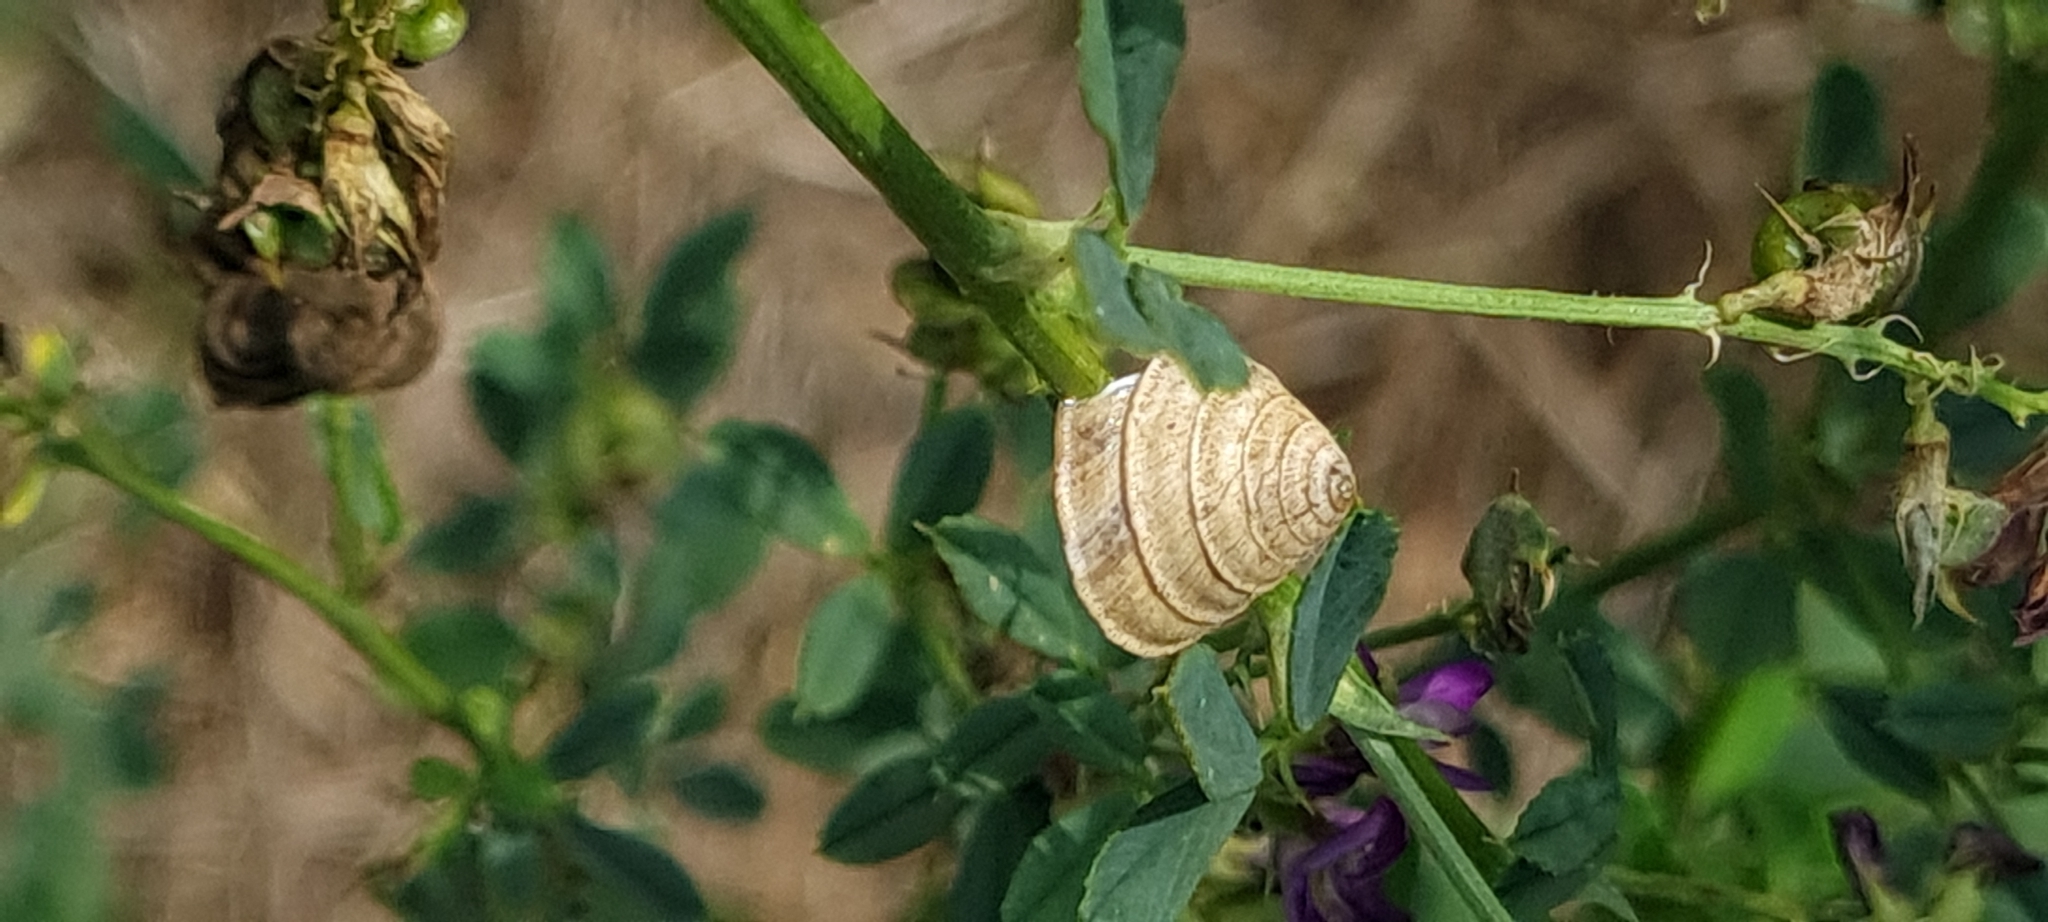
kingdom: Animalia
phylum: Mollusca
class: Gastropoda
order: Stylommatophora
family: Geomitridae
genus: Trochoidea
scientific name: Trochoidea elegans
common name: Elegant helicellid
